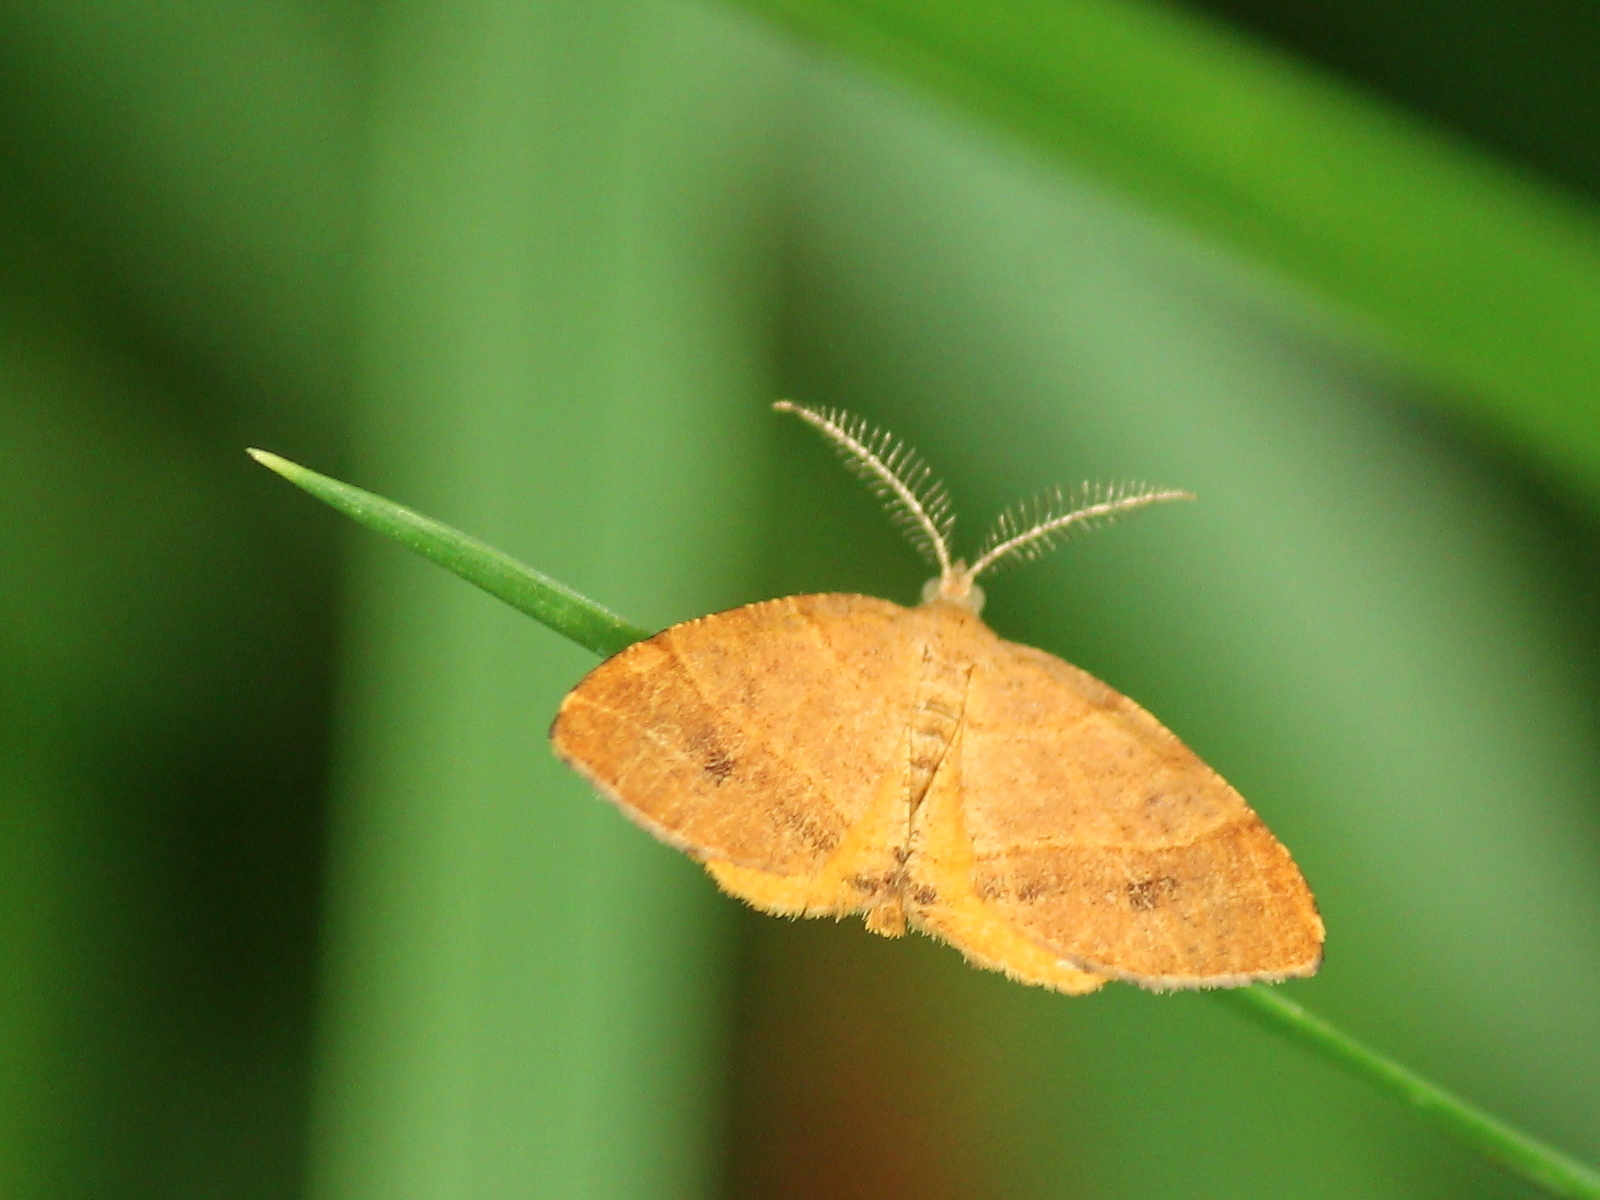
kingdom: Animalia
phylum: Arthropoda
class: Insecta
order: Lepidoptera
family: Geometridae
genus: Mellilla
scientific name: Mellilla xanthometata
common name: Orange wing moth
